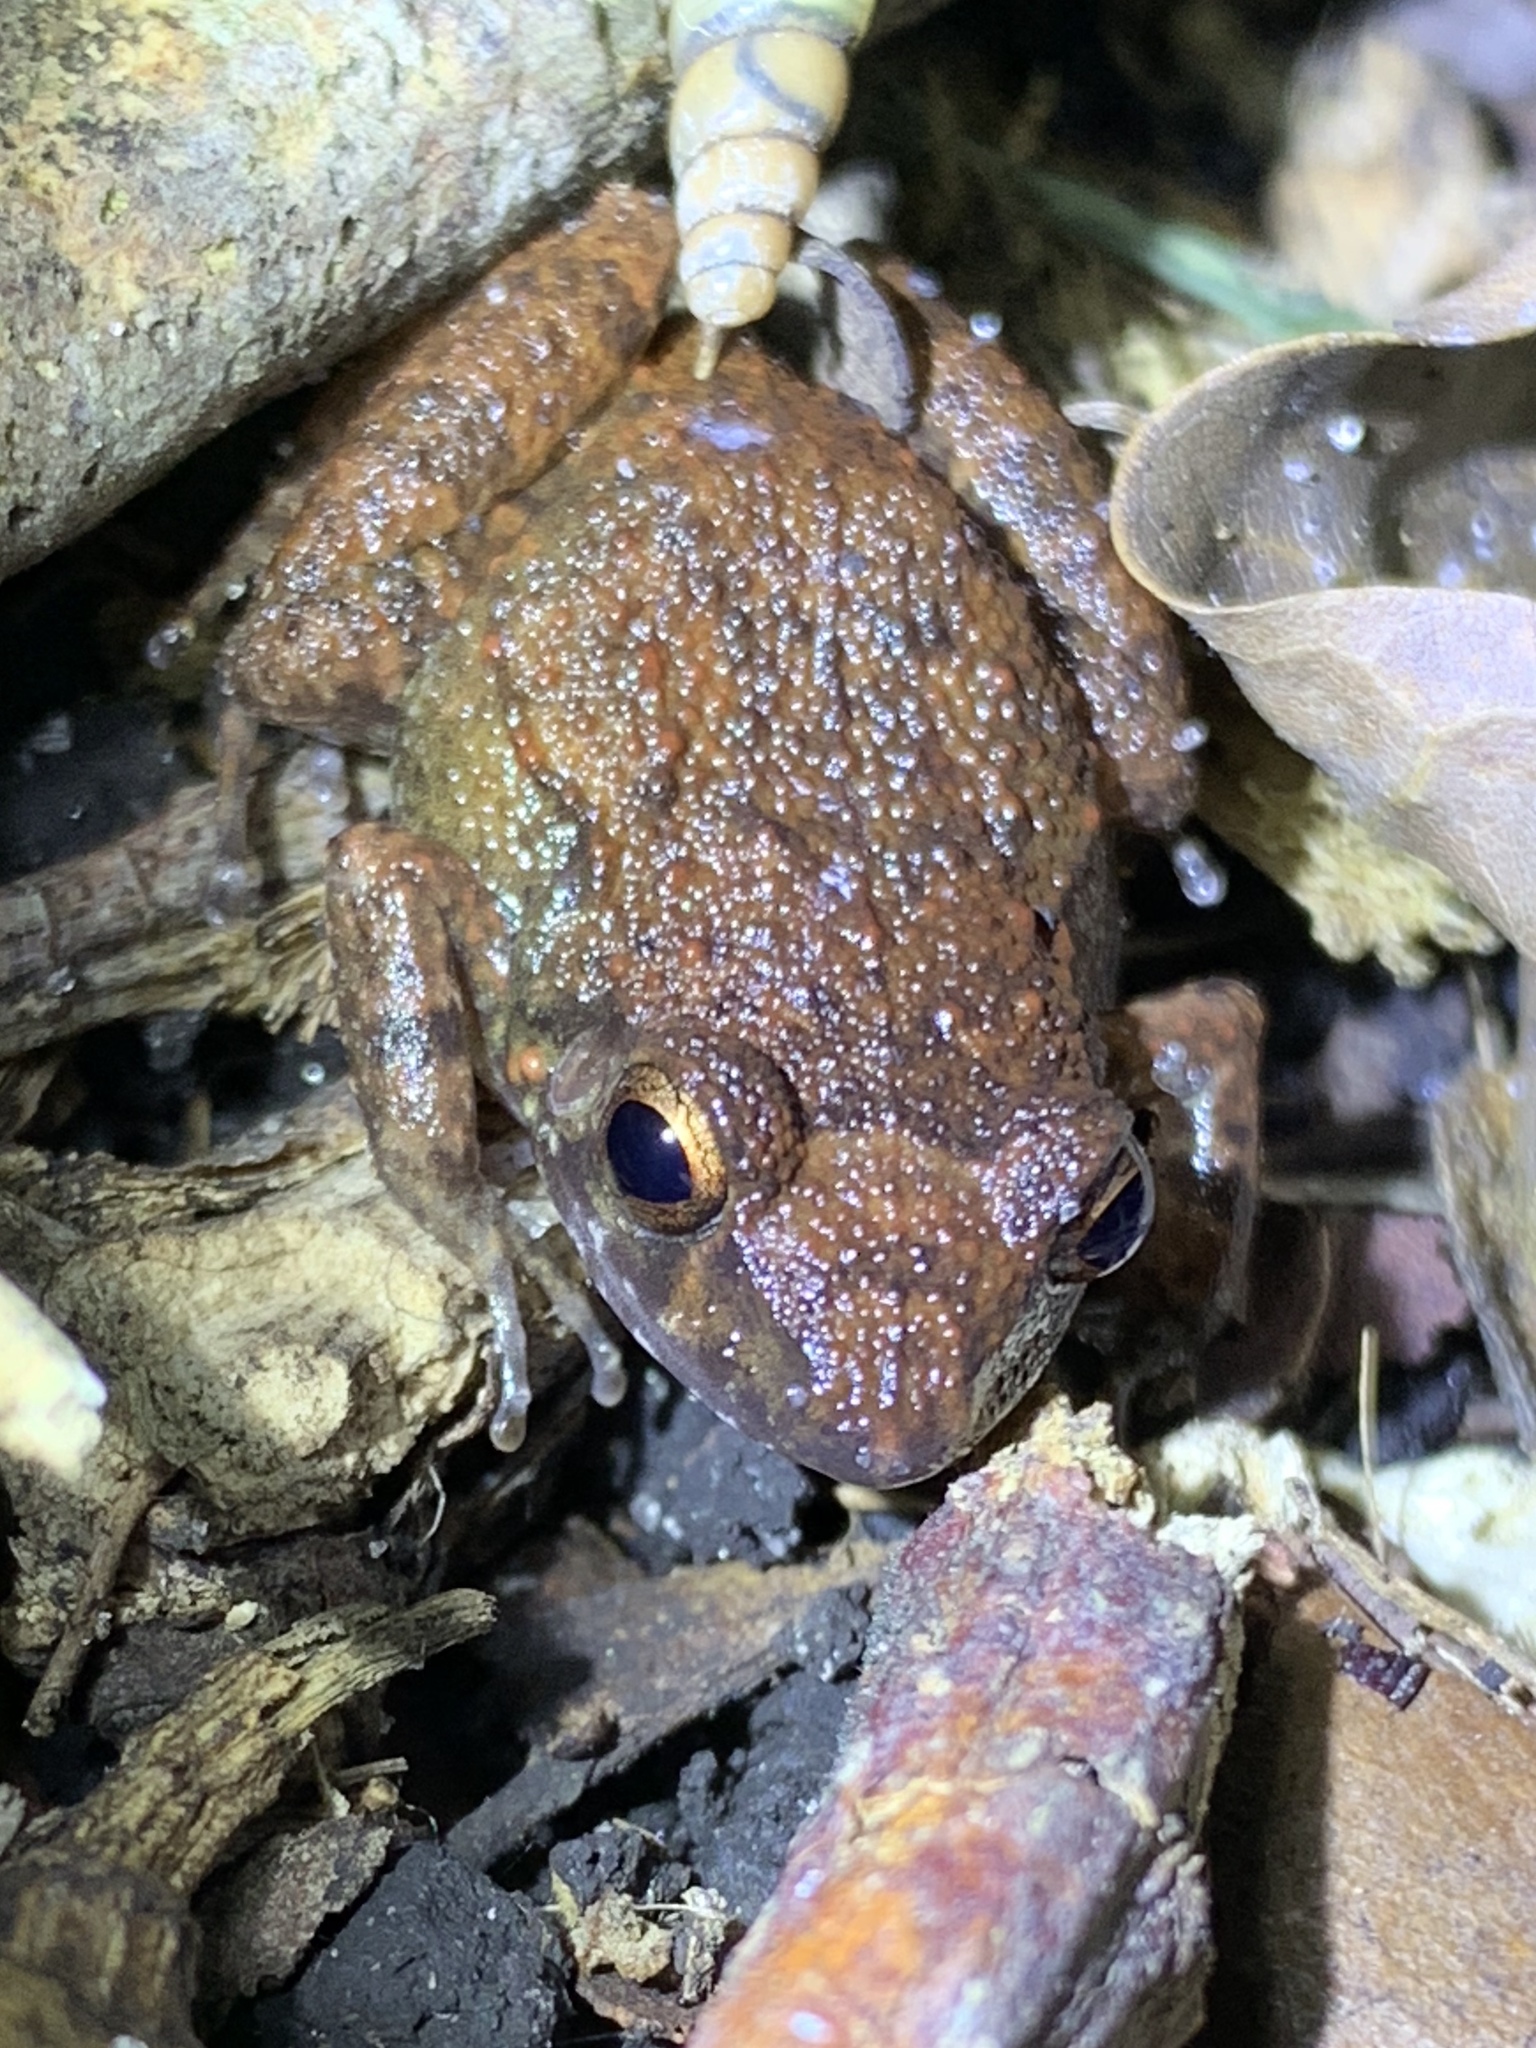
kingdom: Animalia
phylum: Chordata
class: Amphibia
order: Anura
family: Eleutherodactylidae
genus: Eleutherodactylus
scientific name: Eleutherodactylus planirostris
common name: Greenhouse frog
